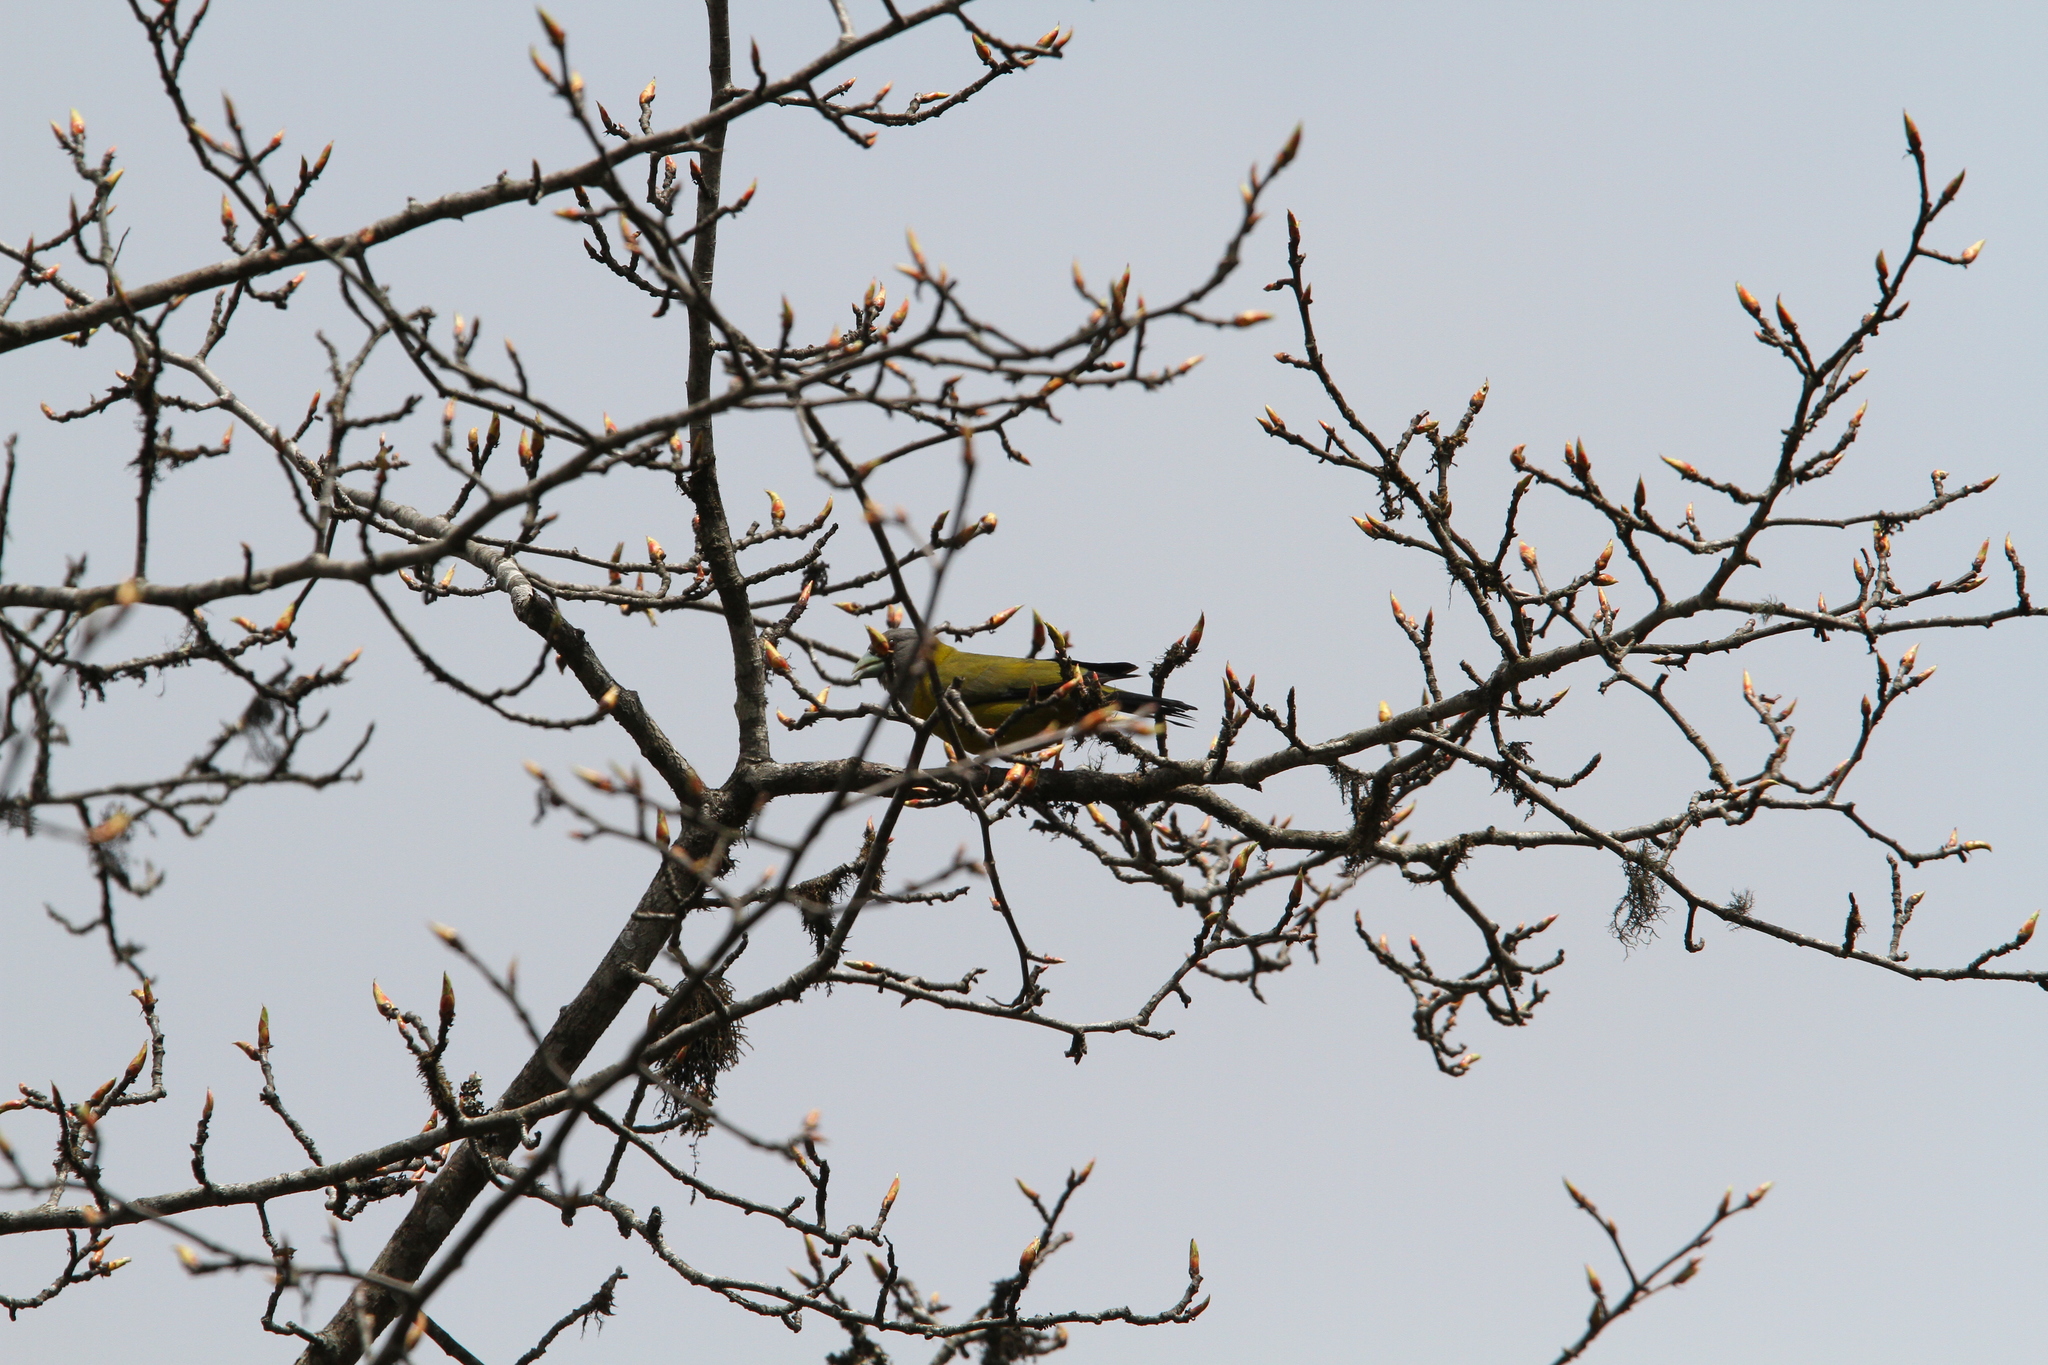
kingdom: Animalia
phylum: Chordata
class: Aves
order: Passeriformes
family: Fringillidae
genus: Mycerobas
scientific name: Mycerobas affinis
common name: Collared grosbeak
